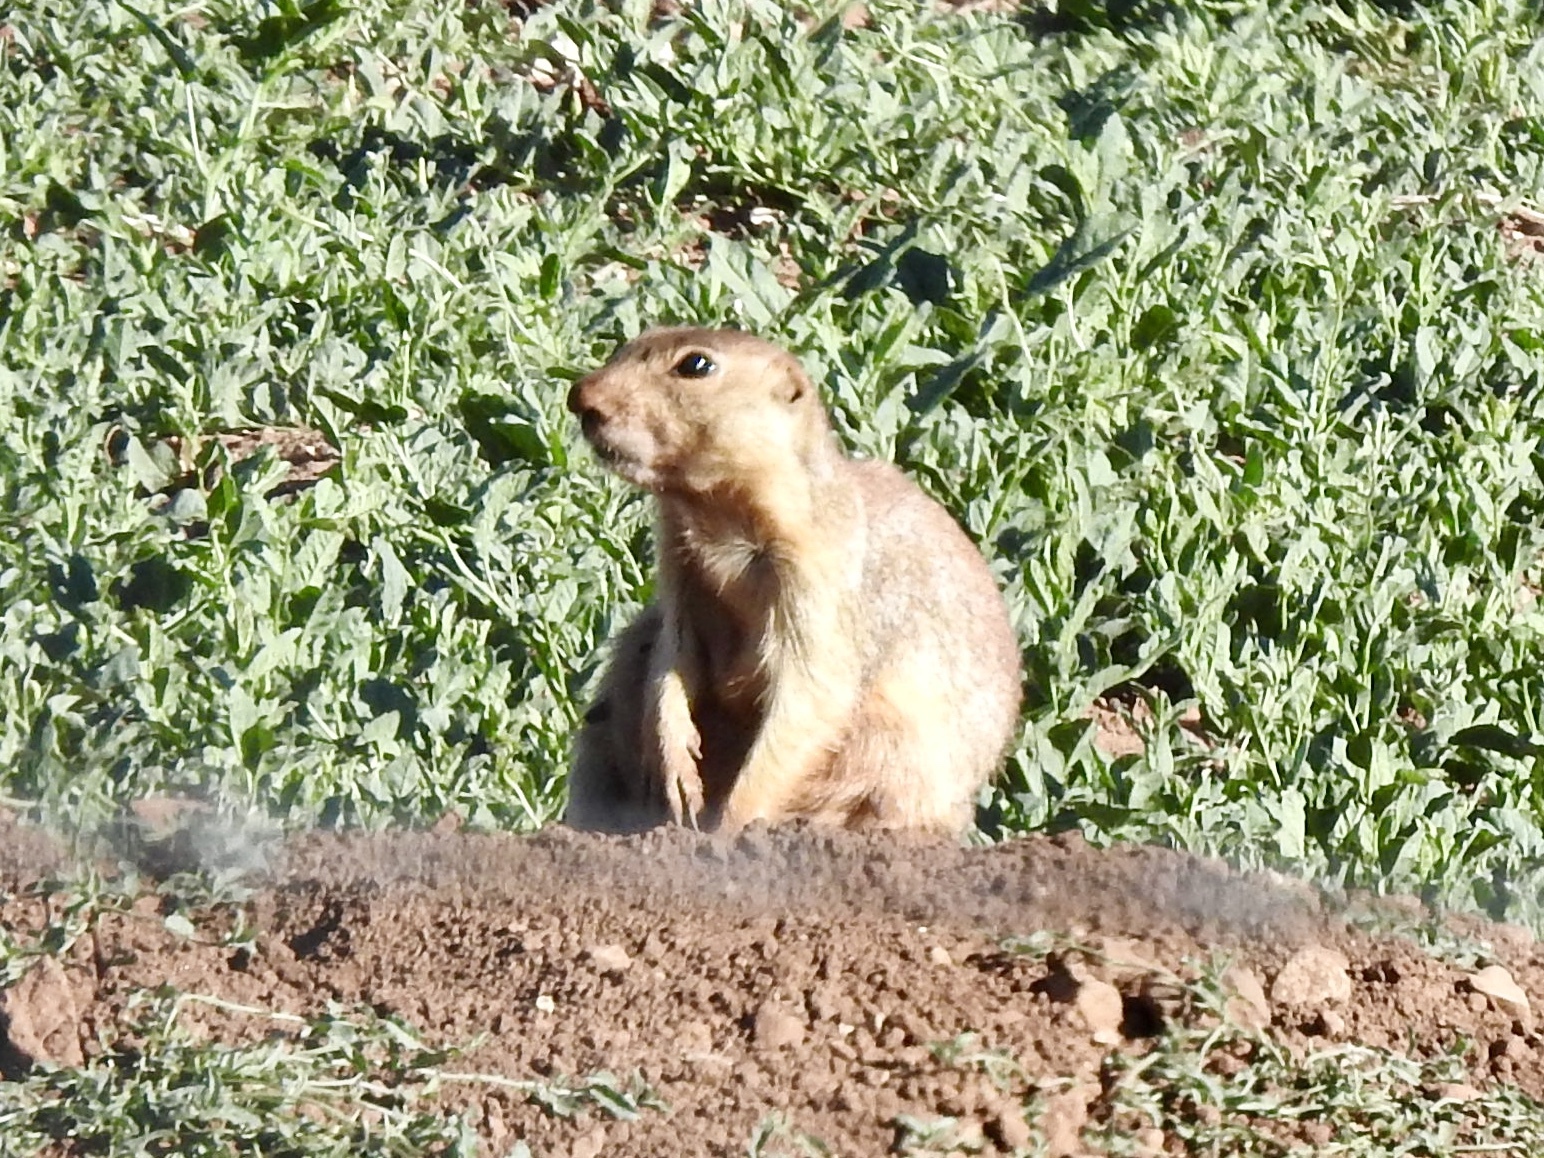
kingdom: Animalia
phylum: Chordata
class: Mammalia
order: Rodentia
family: Sciuridae
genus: Cynomys
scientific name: Cynomys gunnisoni
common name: Gunnison's prairie dog
